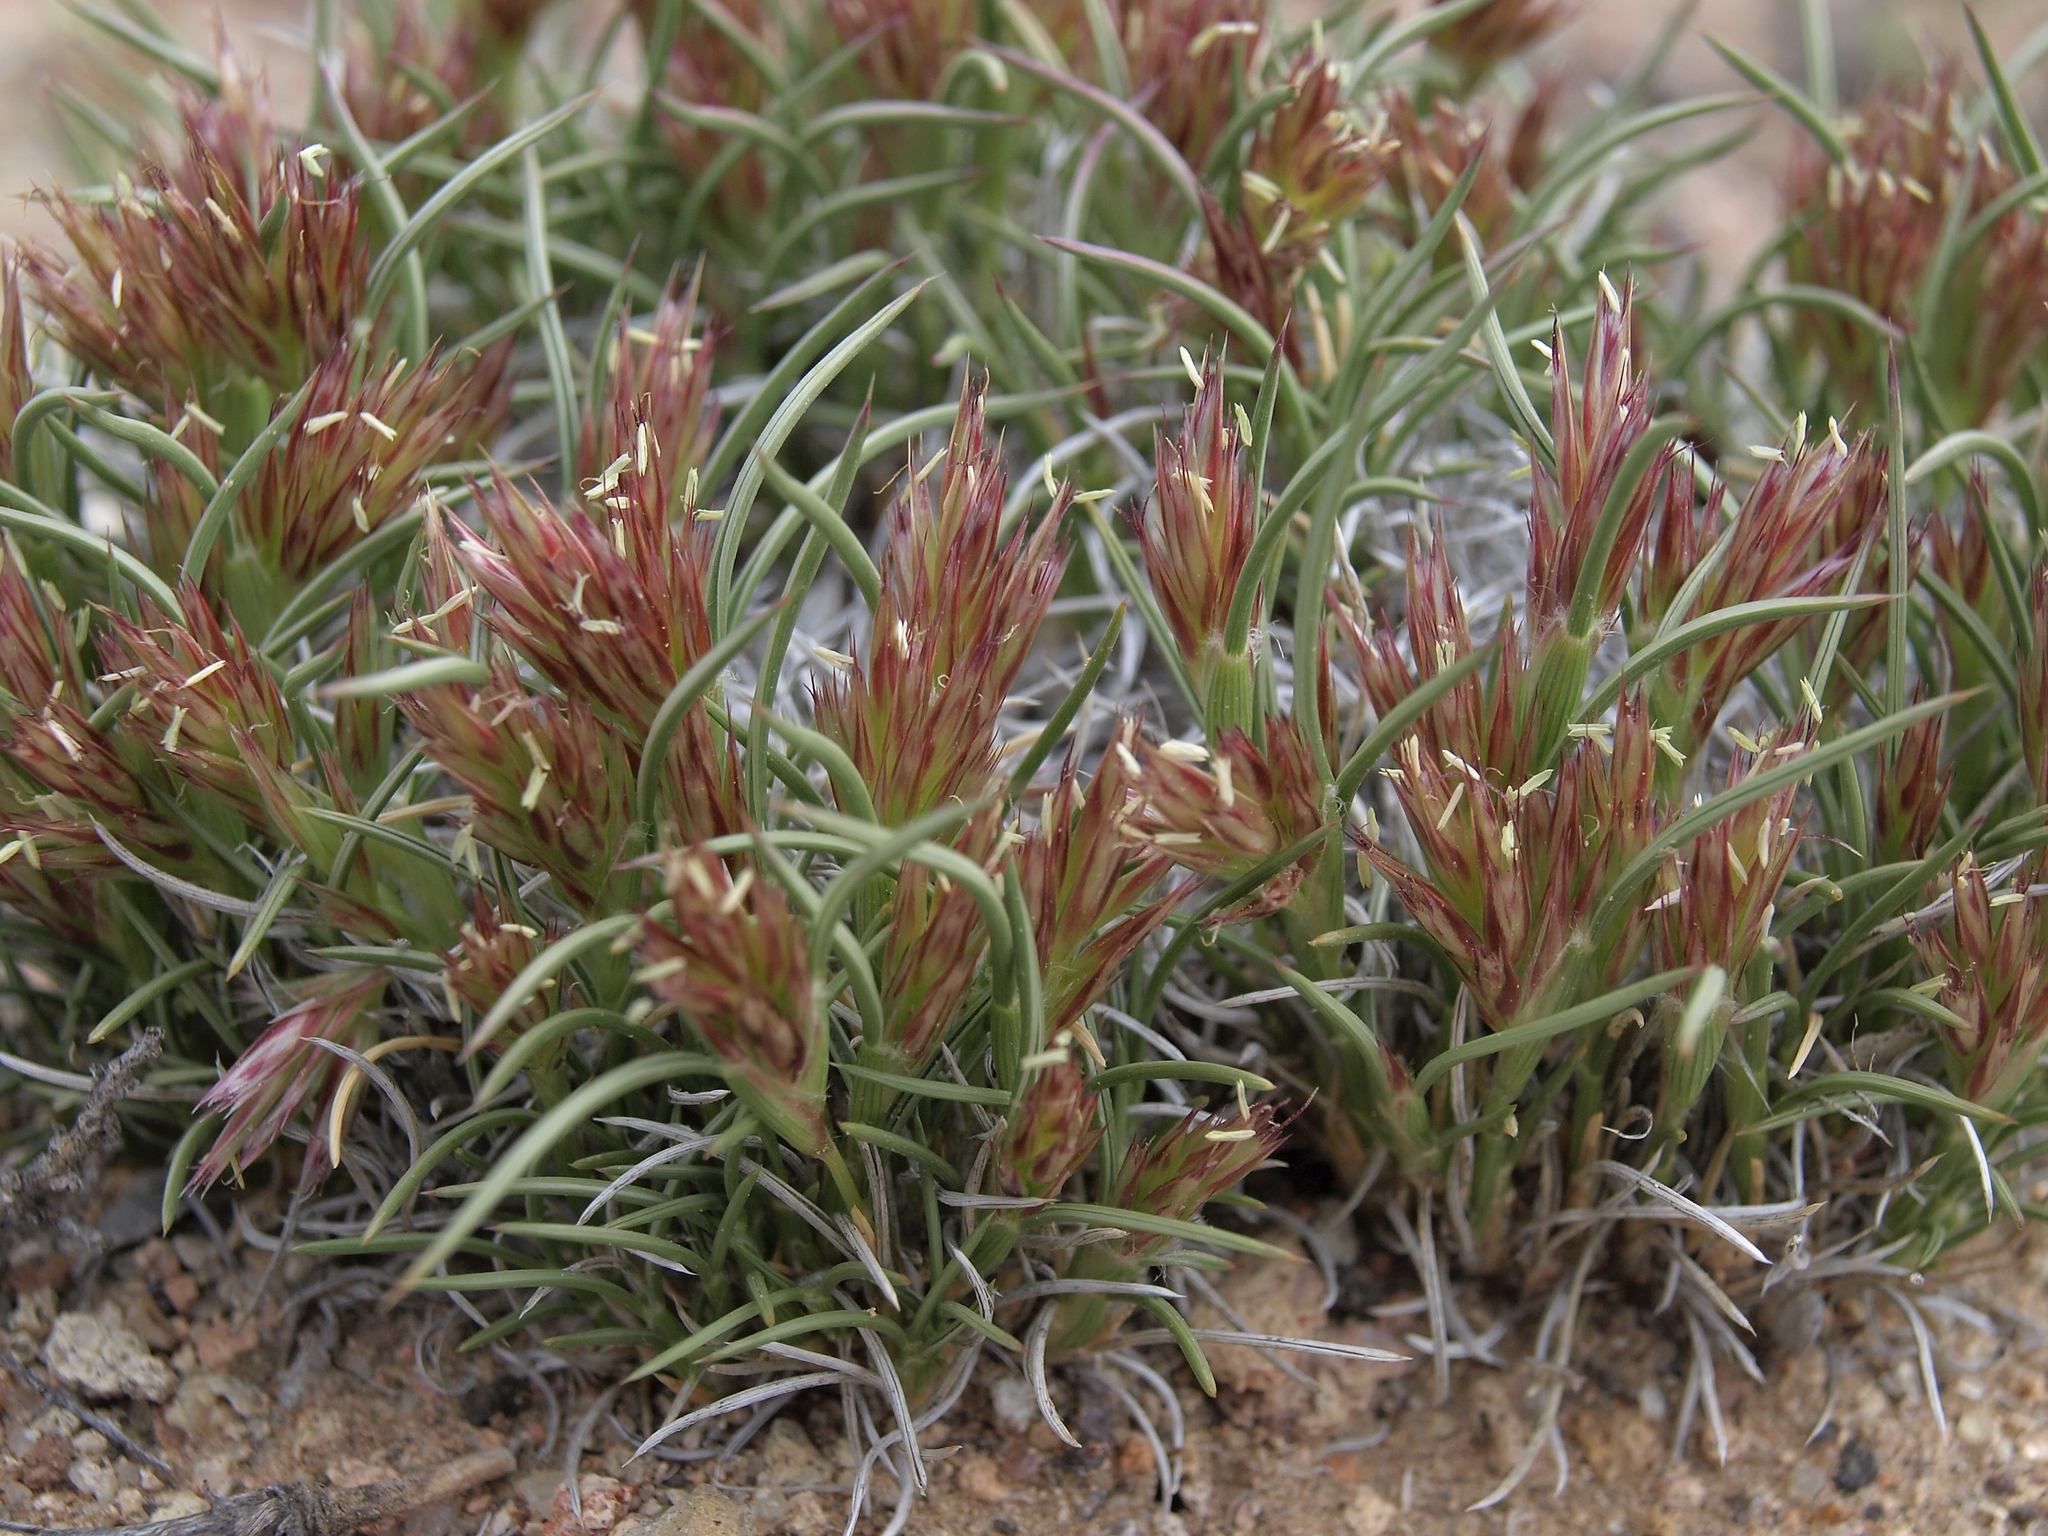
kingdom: Plantae
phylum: Tracheophyta
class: Liliopsida
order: Poales
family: Poaceae
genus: Blepharidachne
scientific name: Blepharidachne kingii
